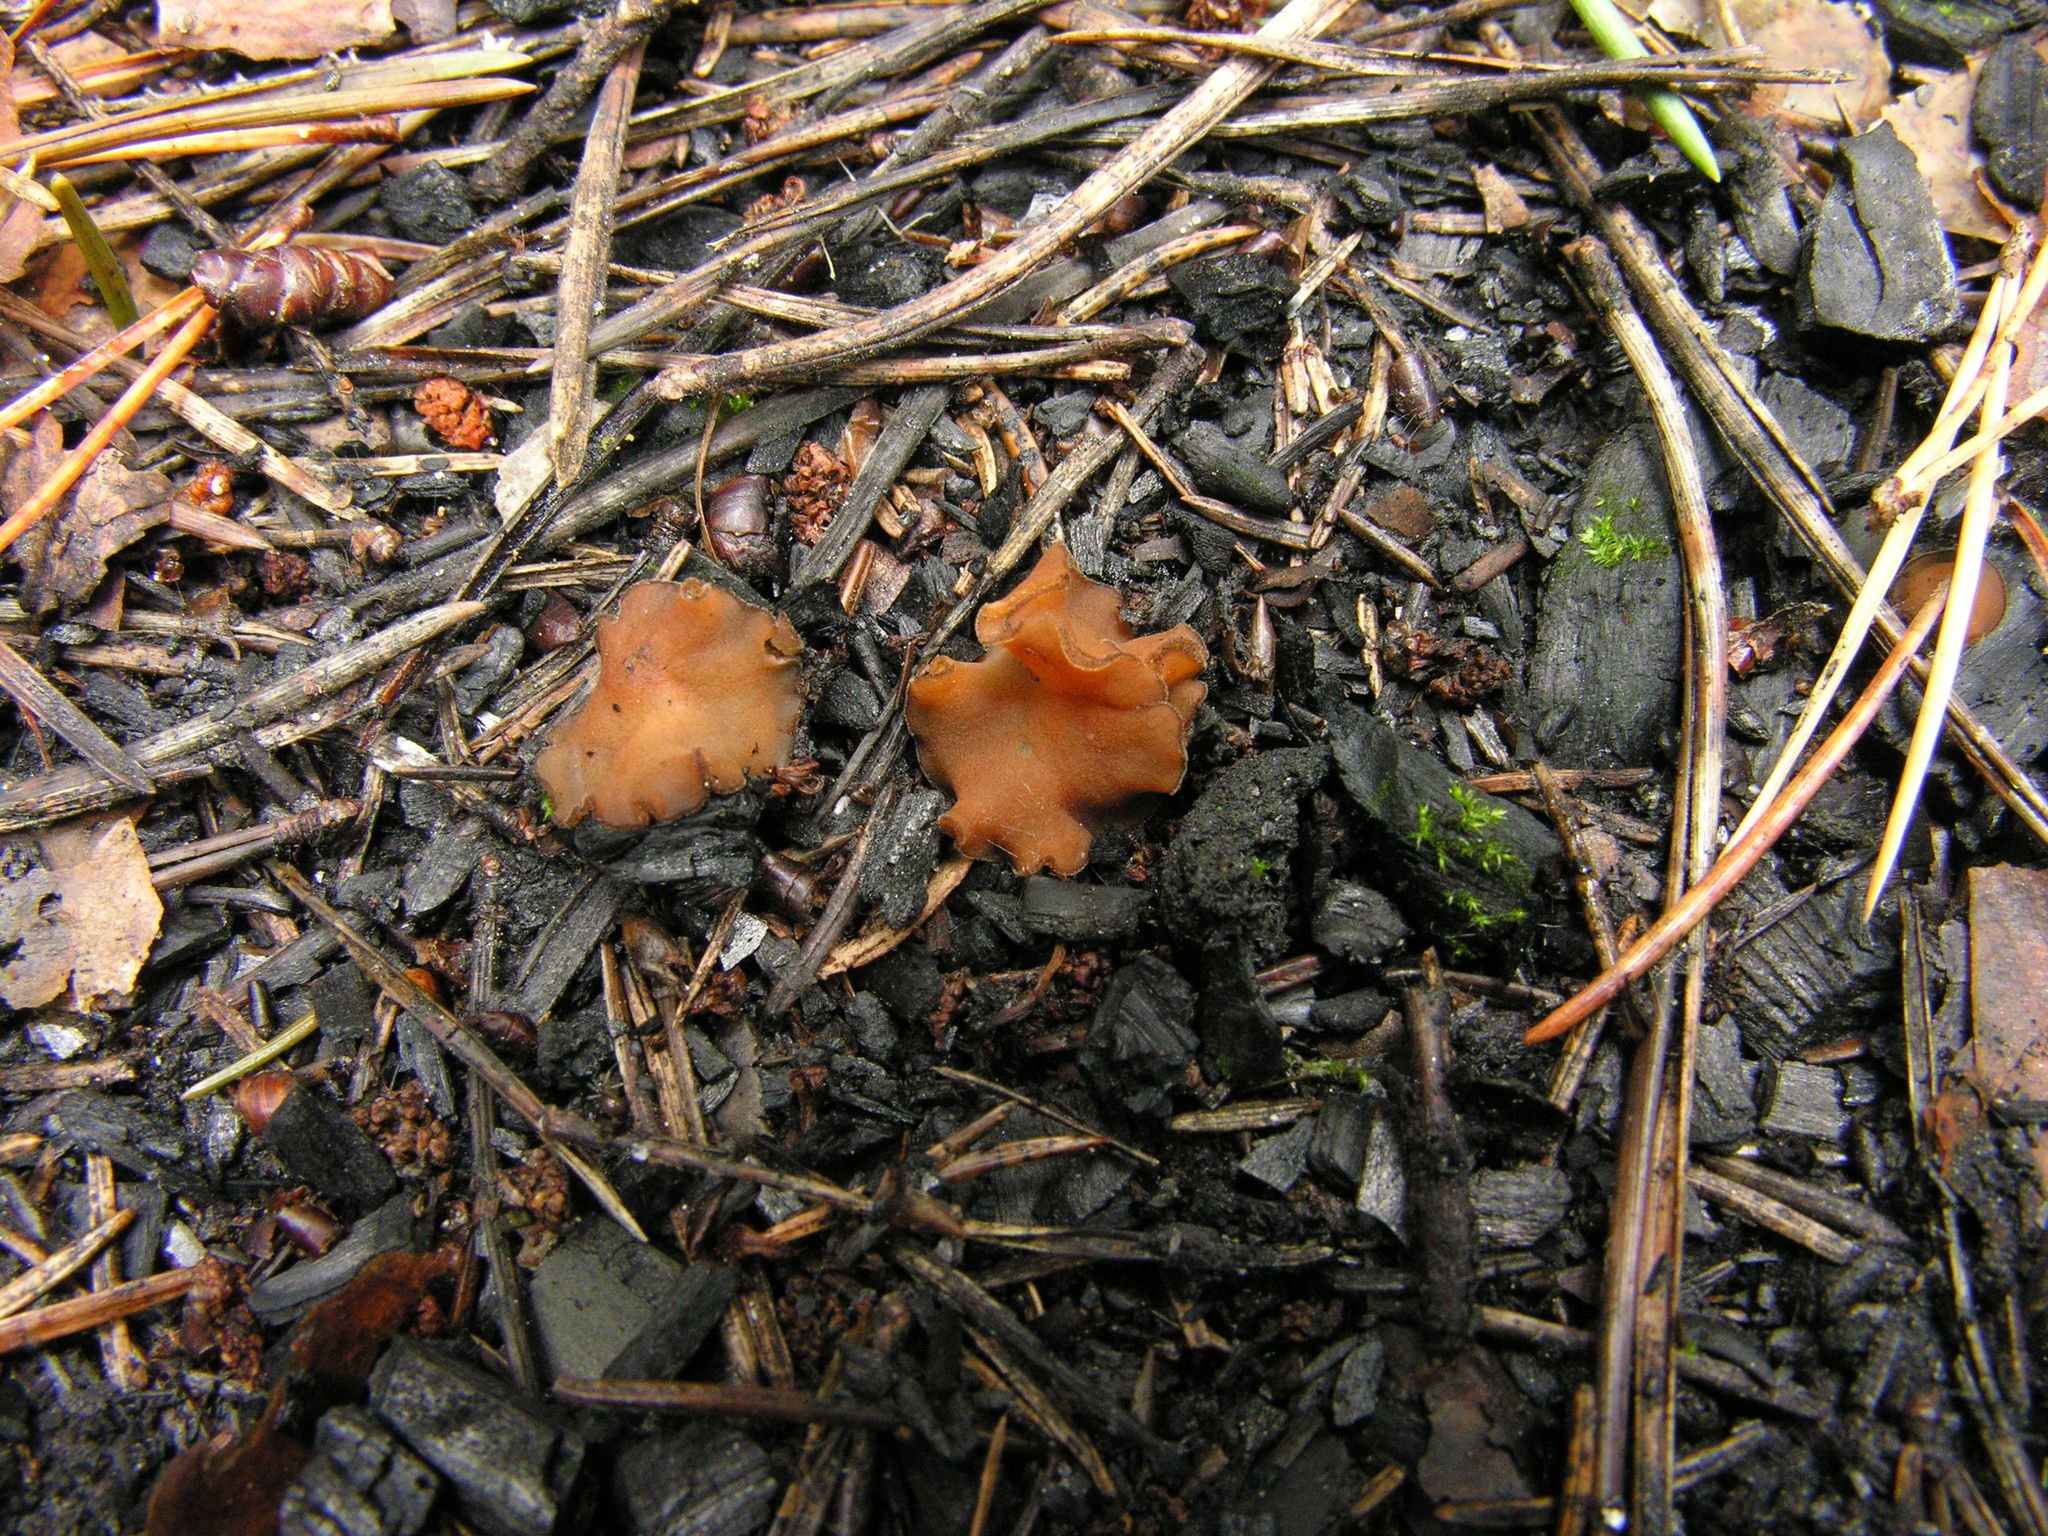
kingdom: Fungi
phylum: Ascomycota
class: Pezizomycetes
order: Pezizales
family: Pyronemataceae
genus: Sphaerosporella
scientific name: Sphaerosporella brunnea
